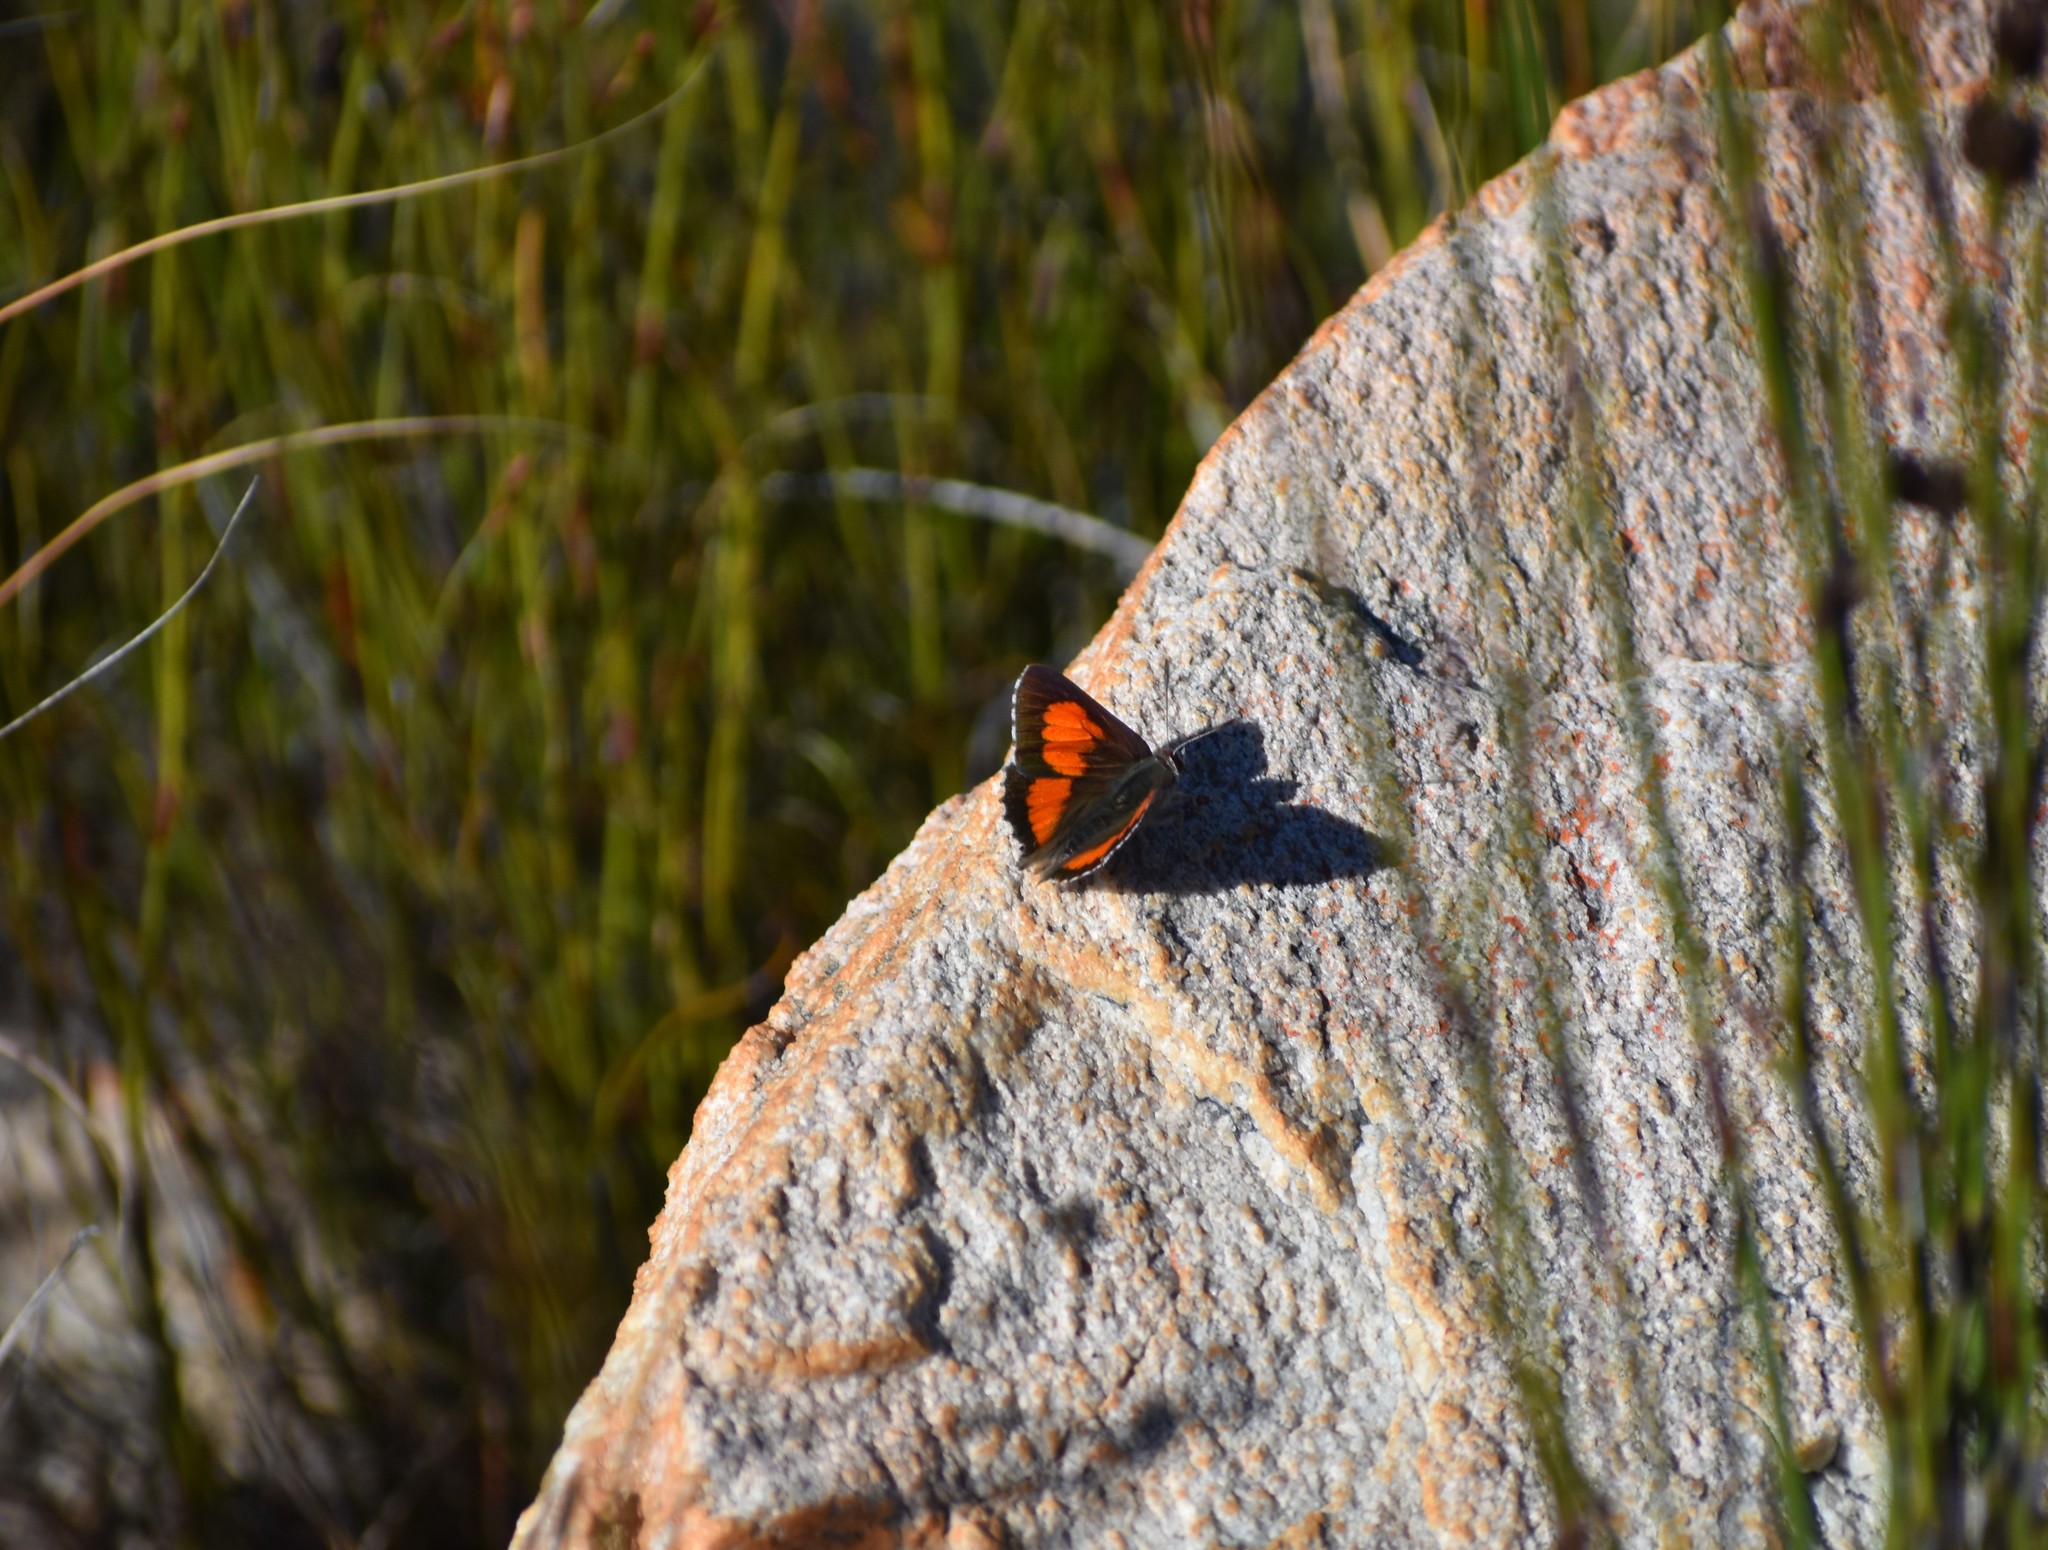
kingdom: Animalia
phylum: Arthropoda
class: Insecta
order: Lepidoptera
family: Lycaenidae
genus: Capys
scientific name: Capys alpheus
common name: Orange-banded protea butterfly
